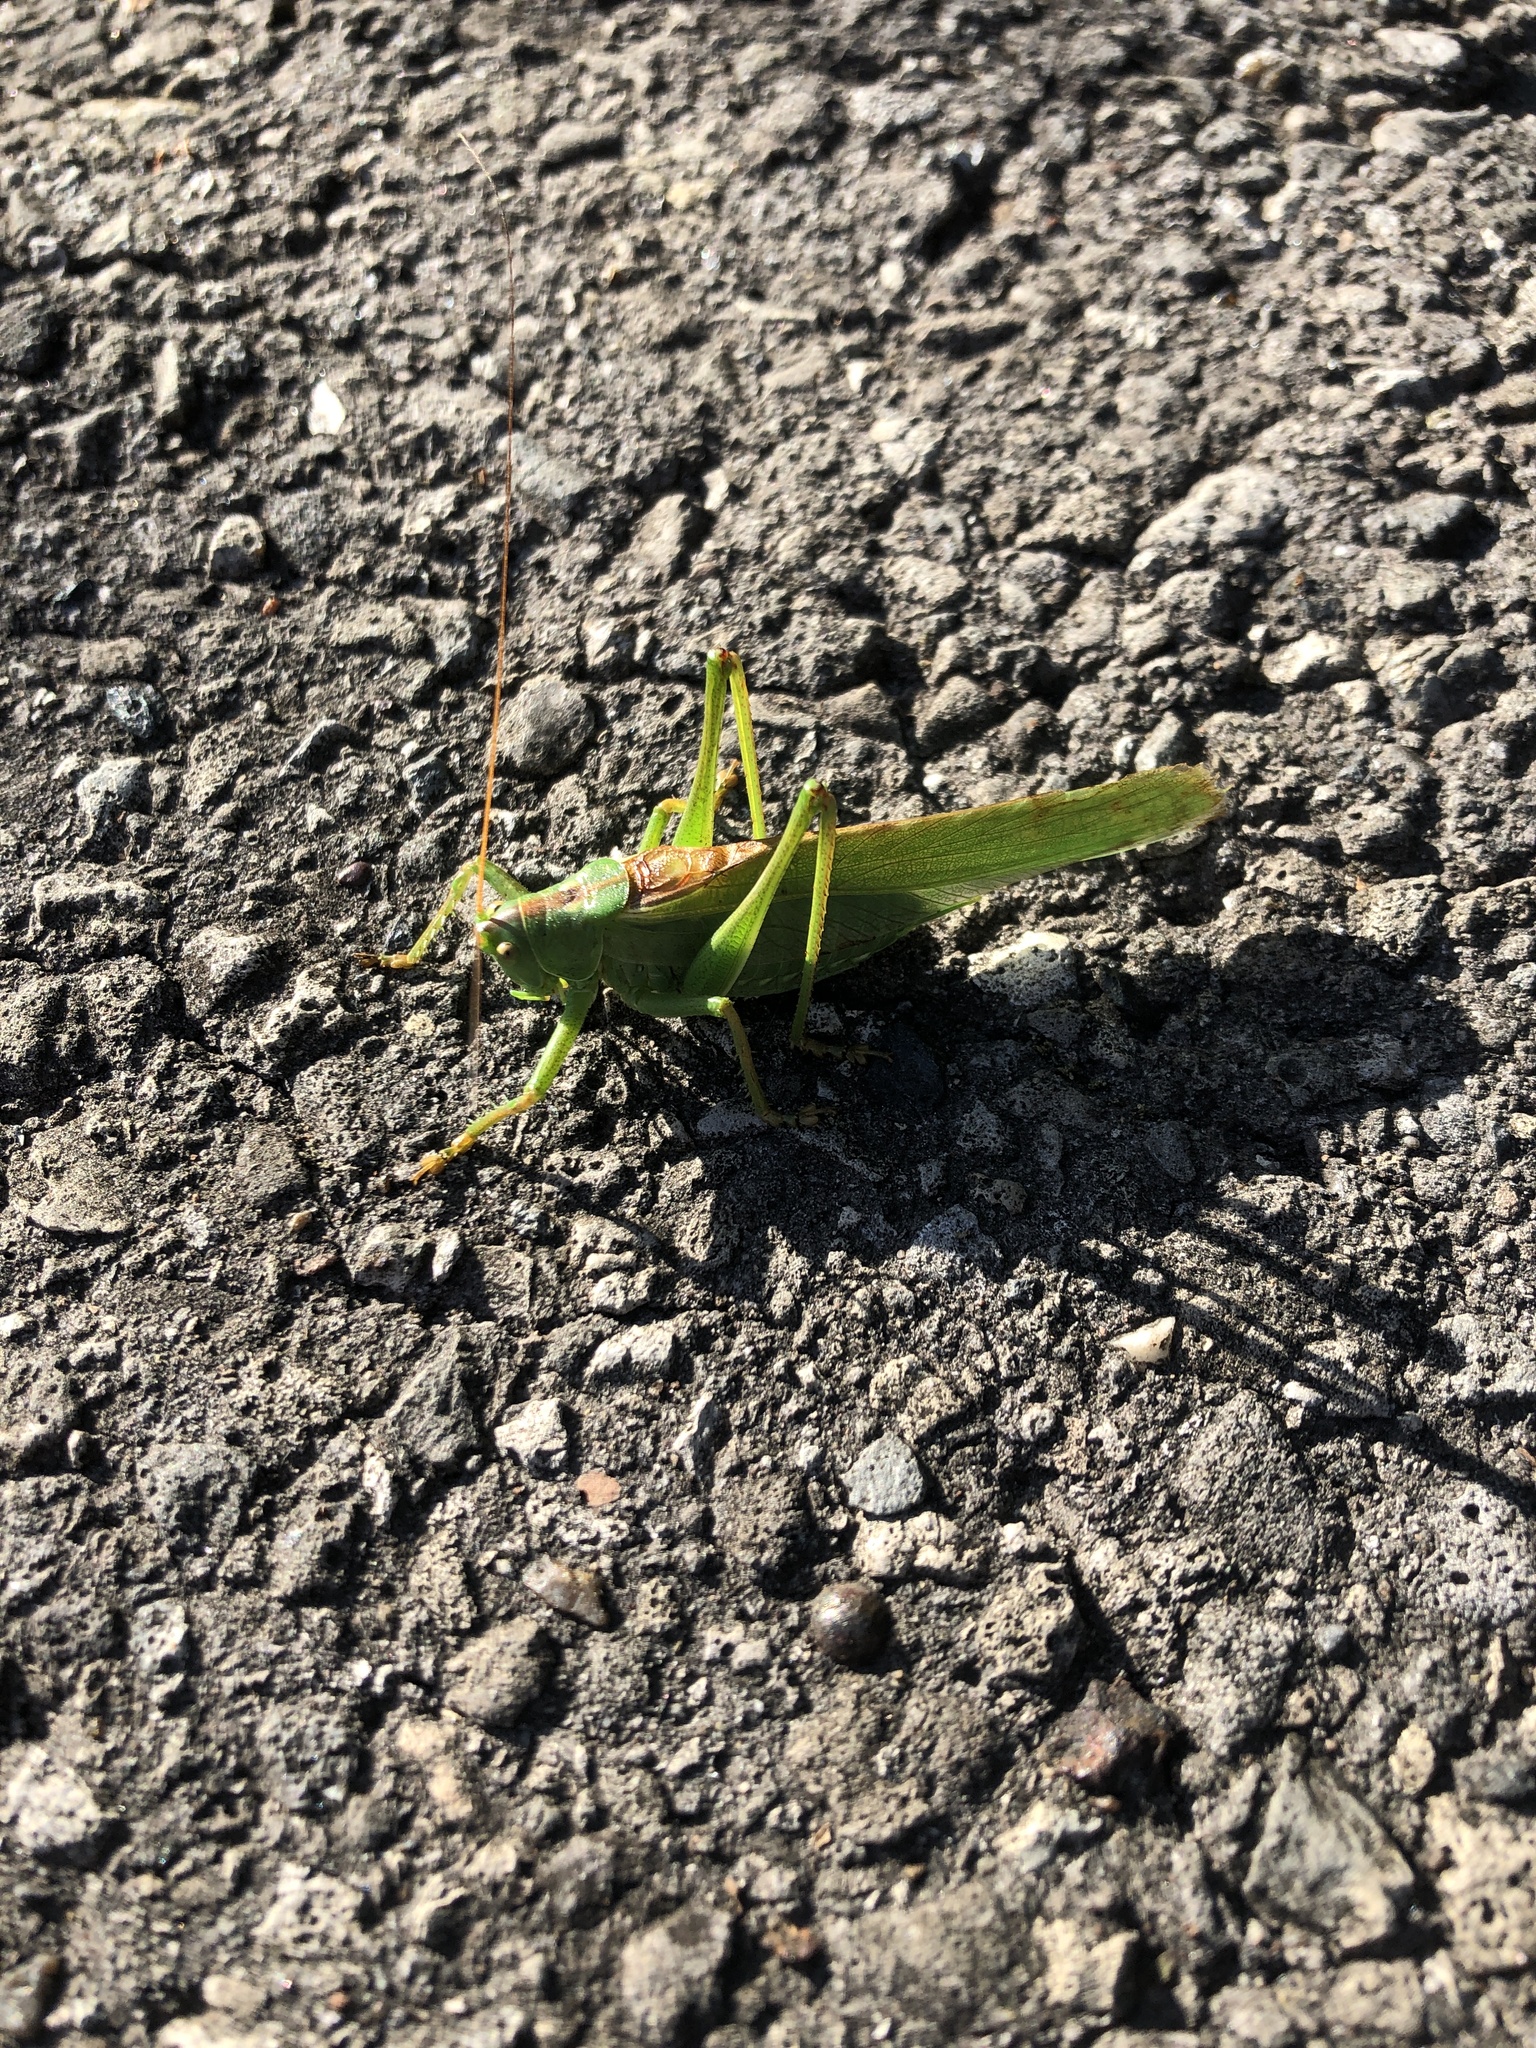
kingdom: Animalia
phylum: Arthropoda
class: Insecta
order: Orthoptera
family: Tettigoniidae
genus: Tettigonia
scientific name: Tettigonia viridissima
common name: Great green bush-cricket
